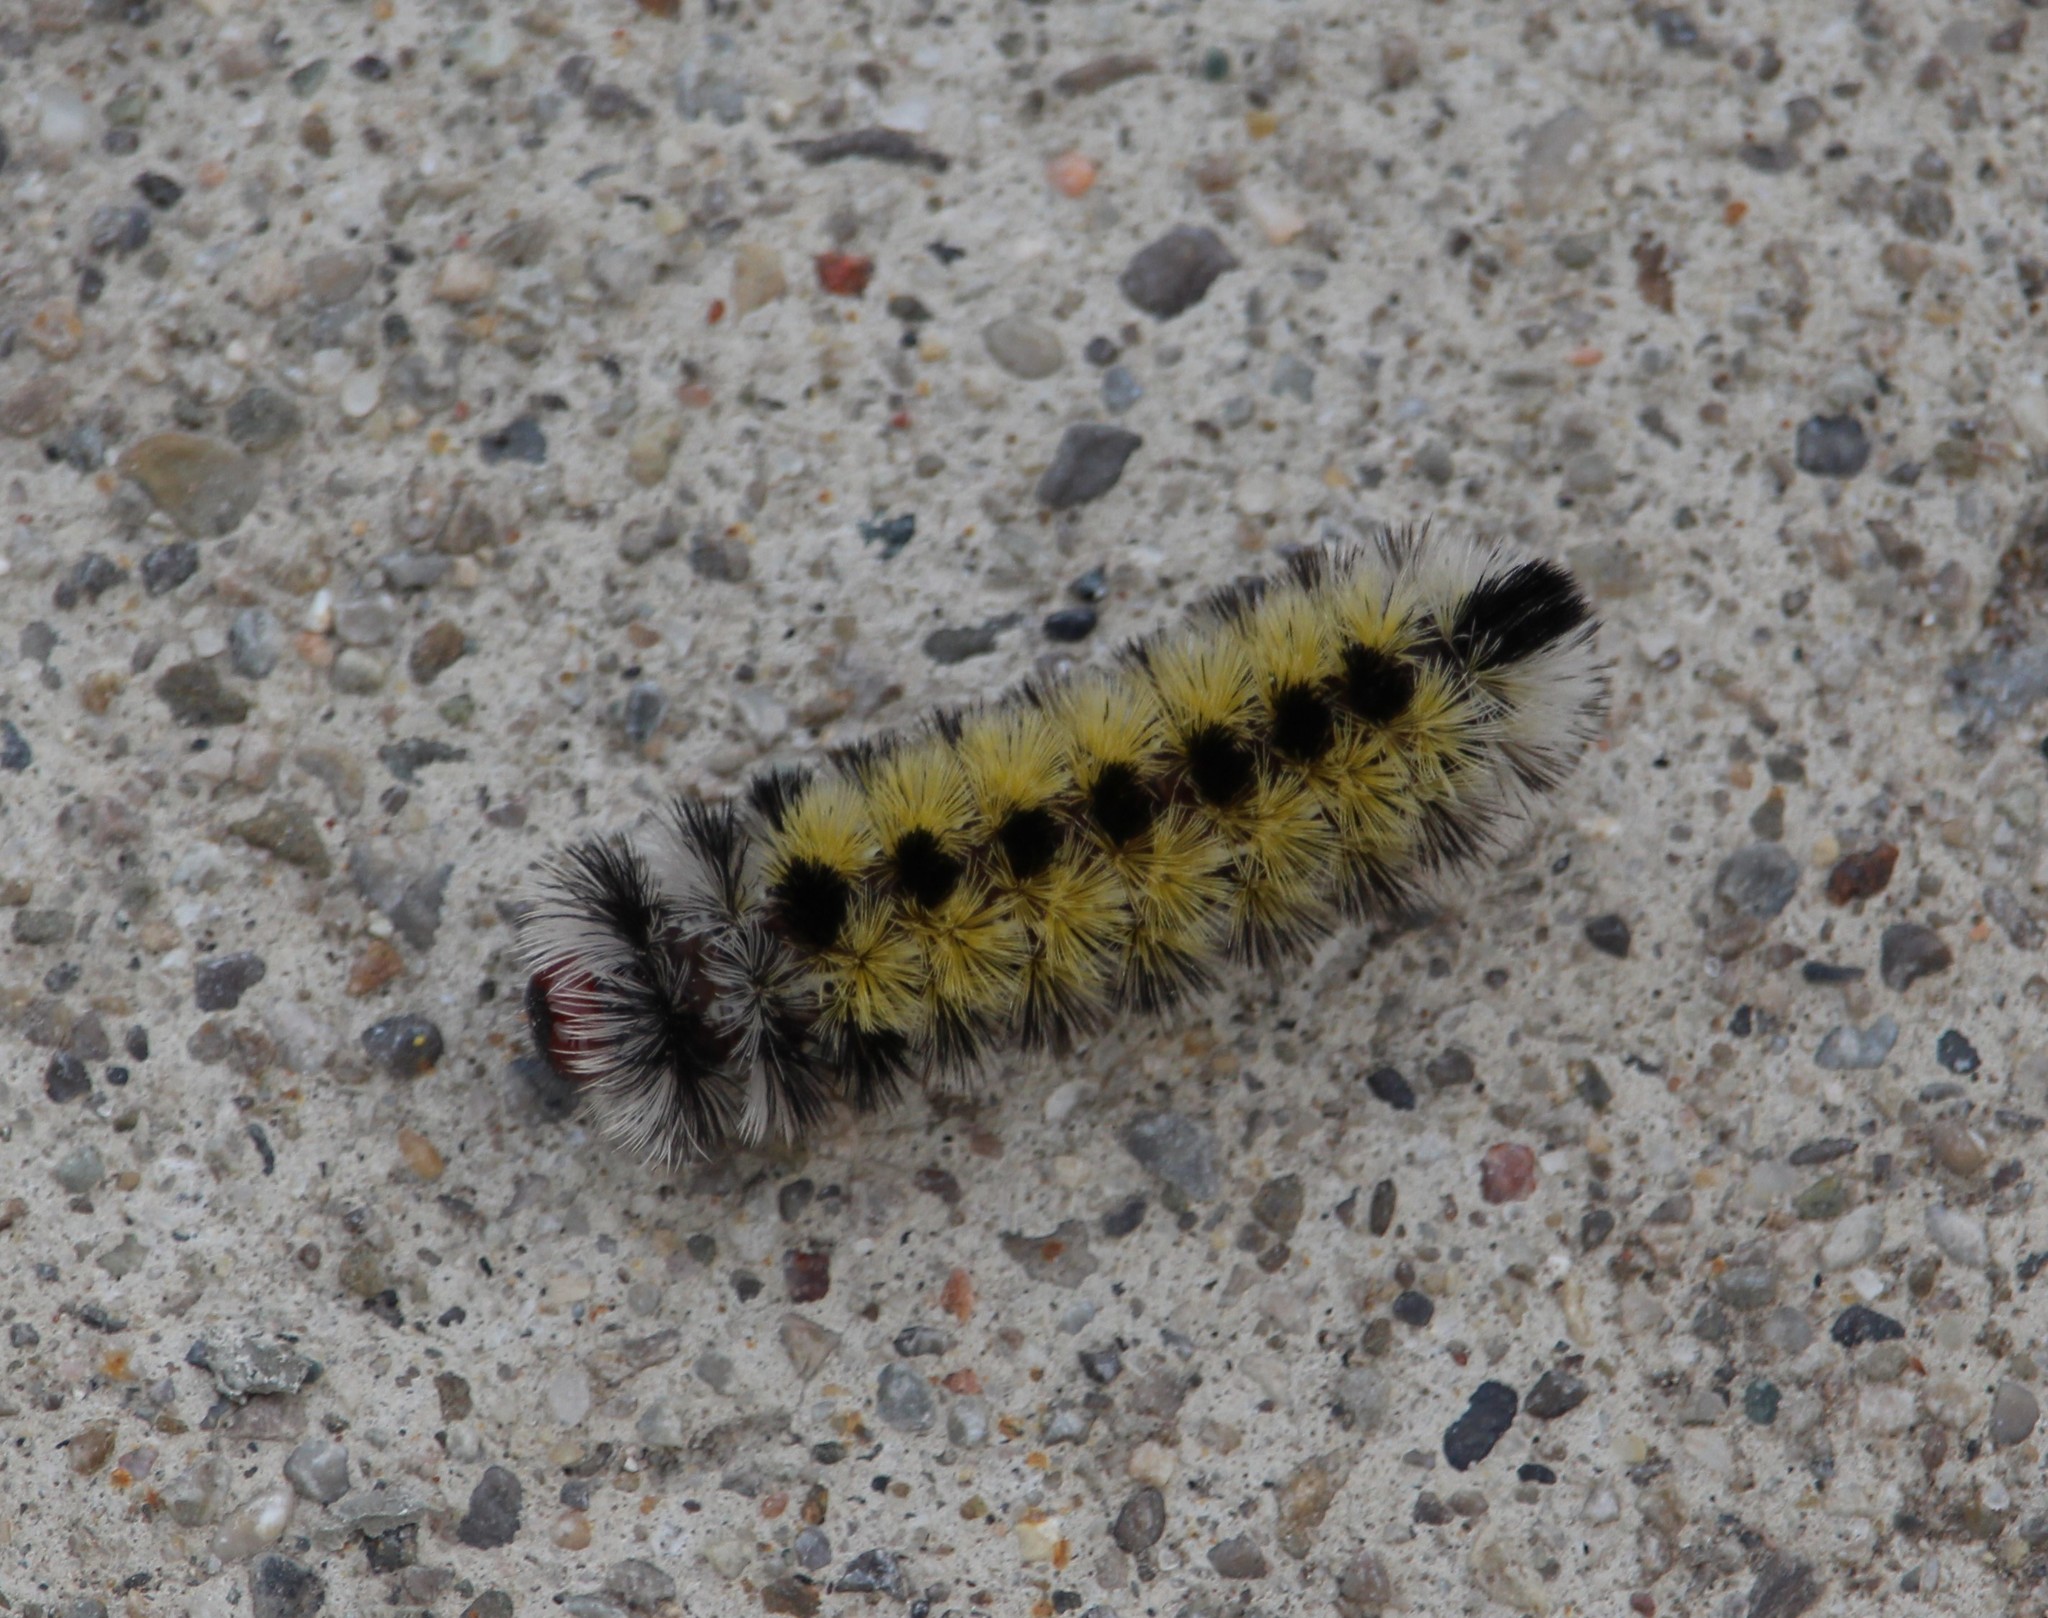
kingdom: Animalia
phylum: Arthropoda
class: Insecta
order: Lepidoptera
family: Erebidae
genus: Ctenucha
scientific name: Ctenucha virginica
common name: Virginia ctenucha moth
